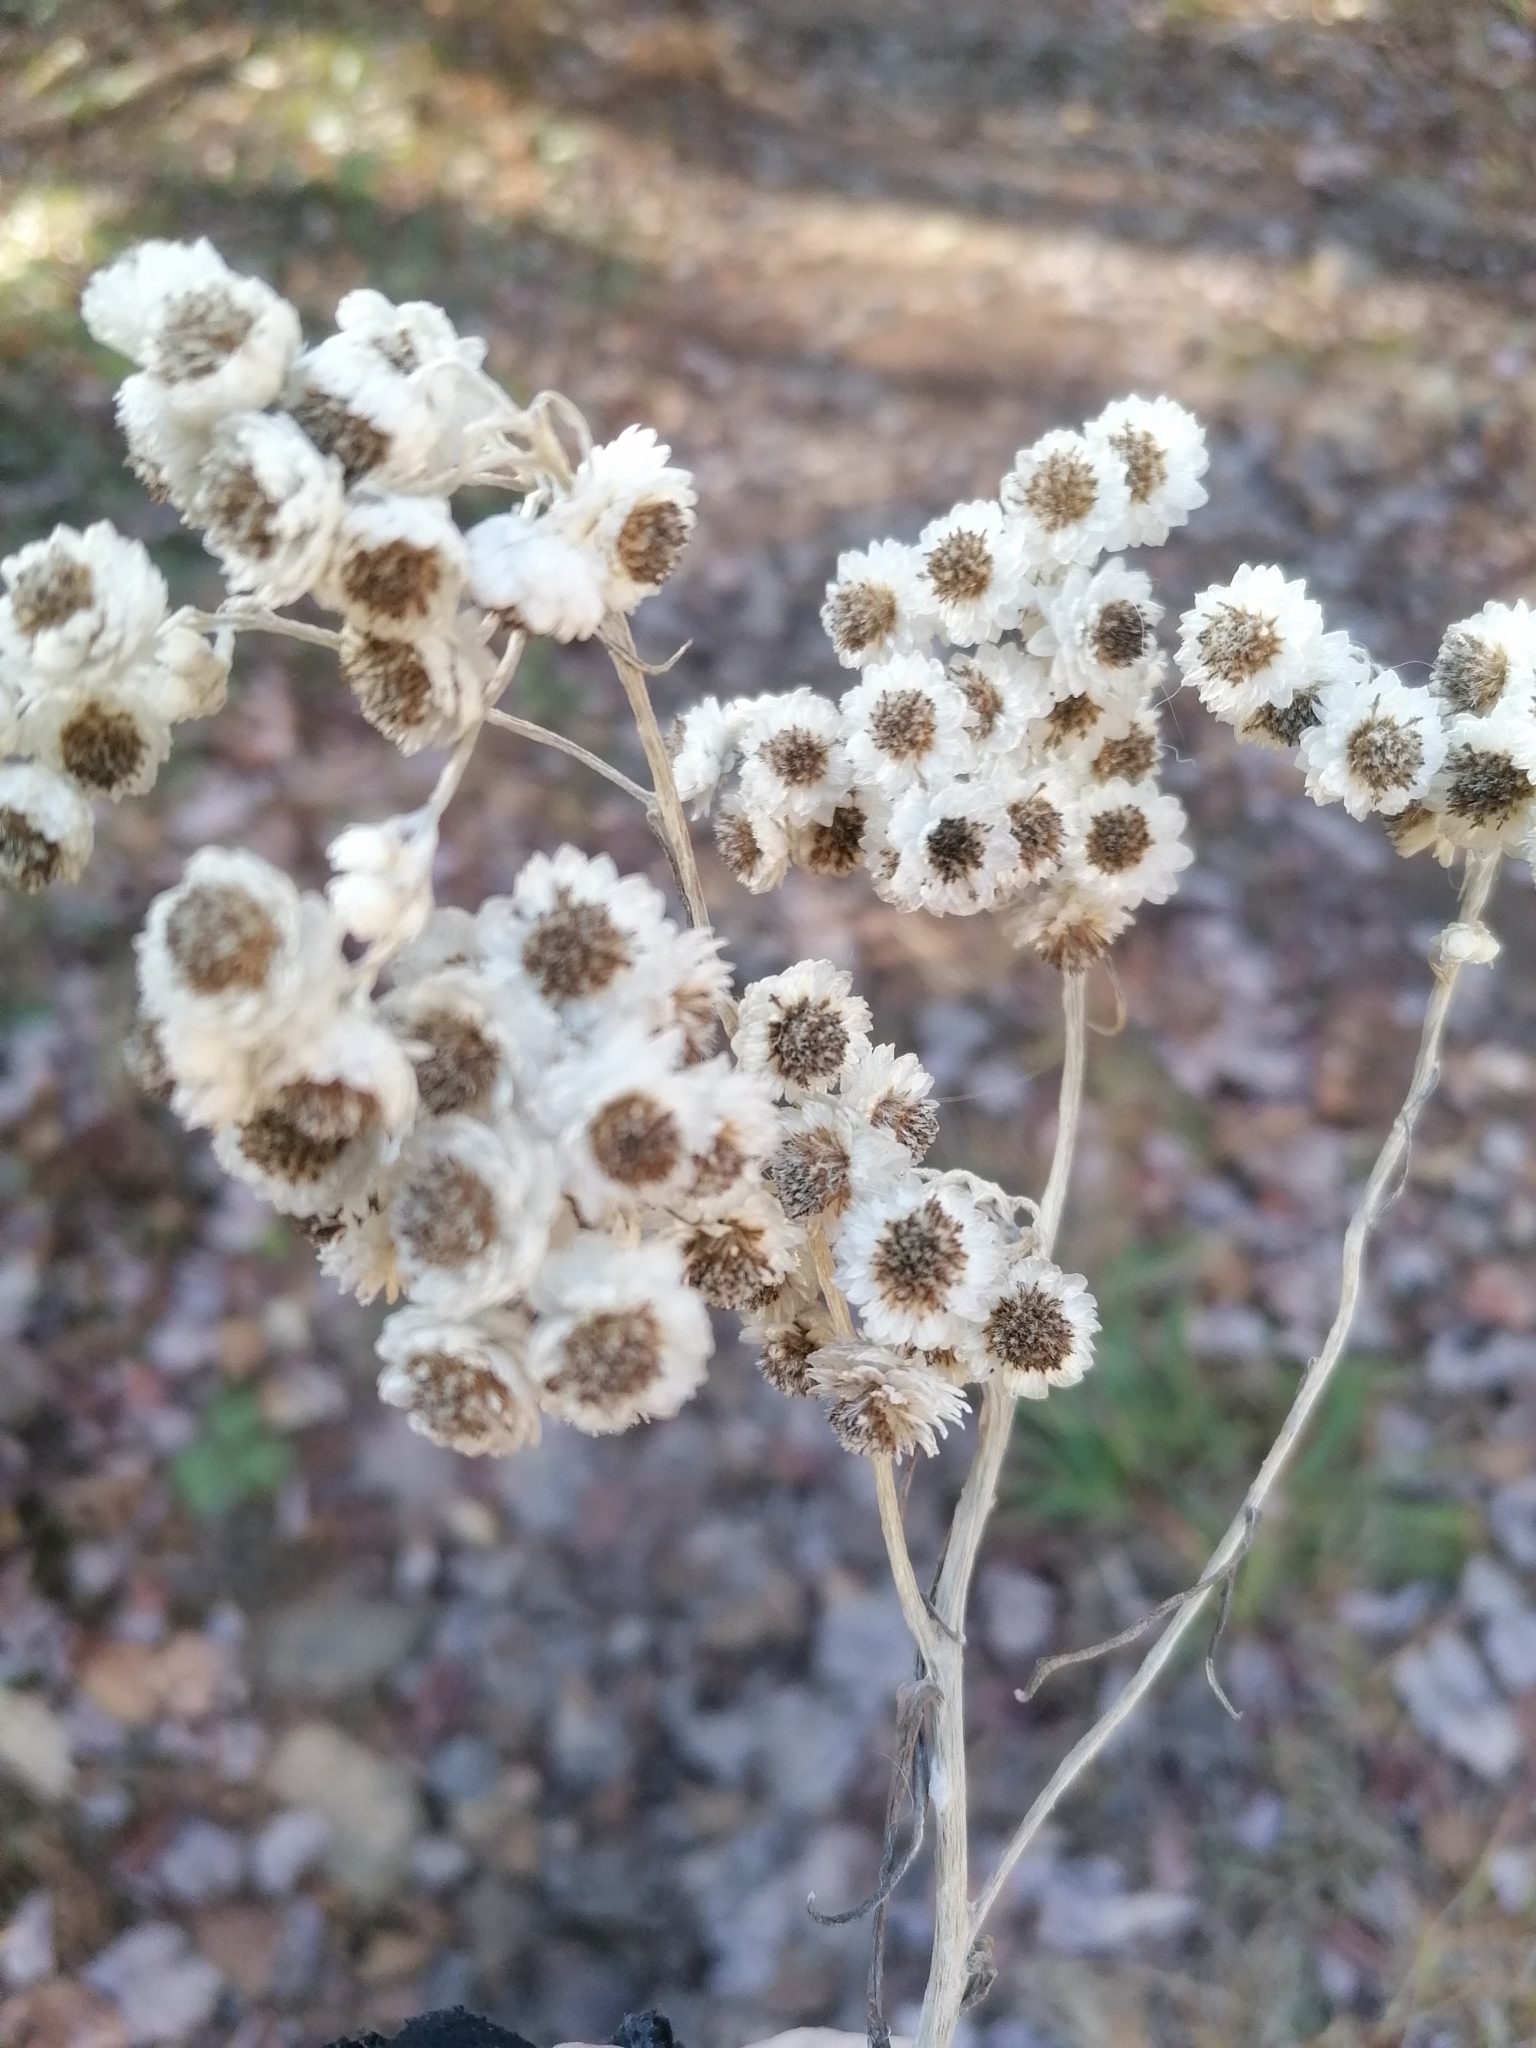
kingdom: Plantae
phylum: Tracheophyta
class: Magnoliopsida
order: Asterales
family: Asteraceae
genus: Anaphalis
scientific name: Anaphalis margaritacea
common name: Pearly everlasting
